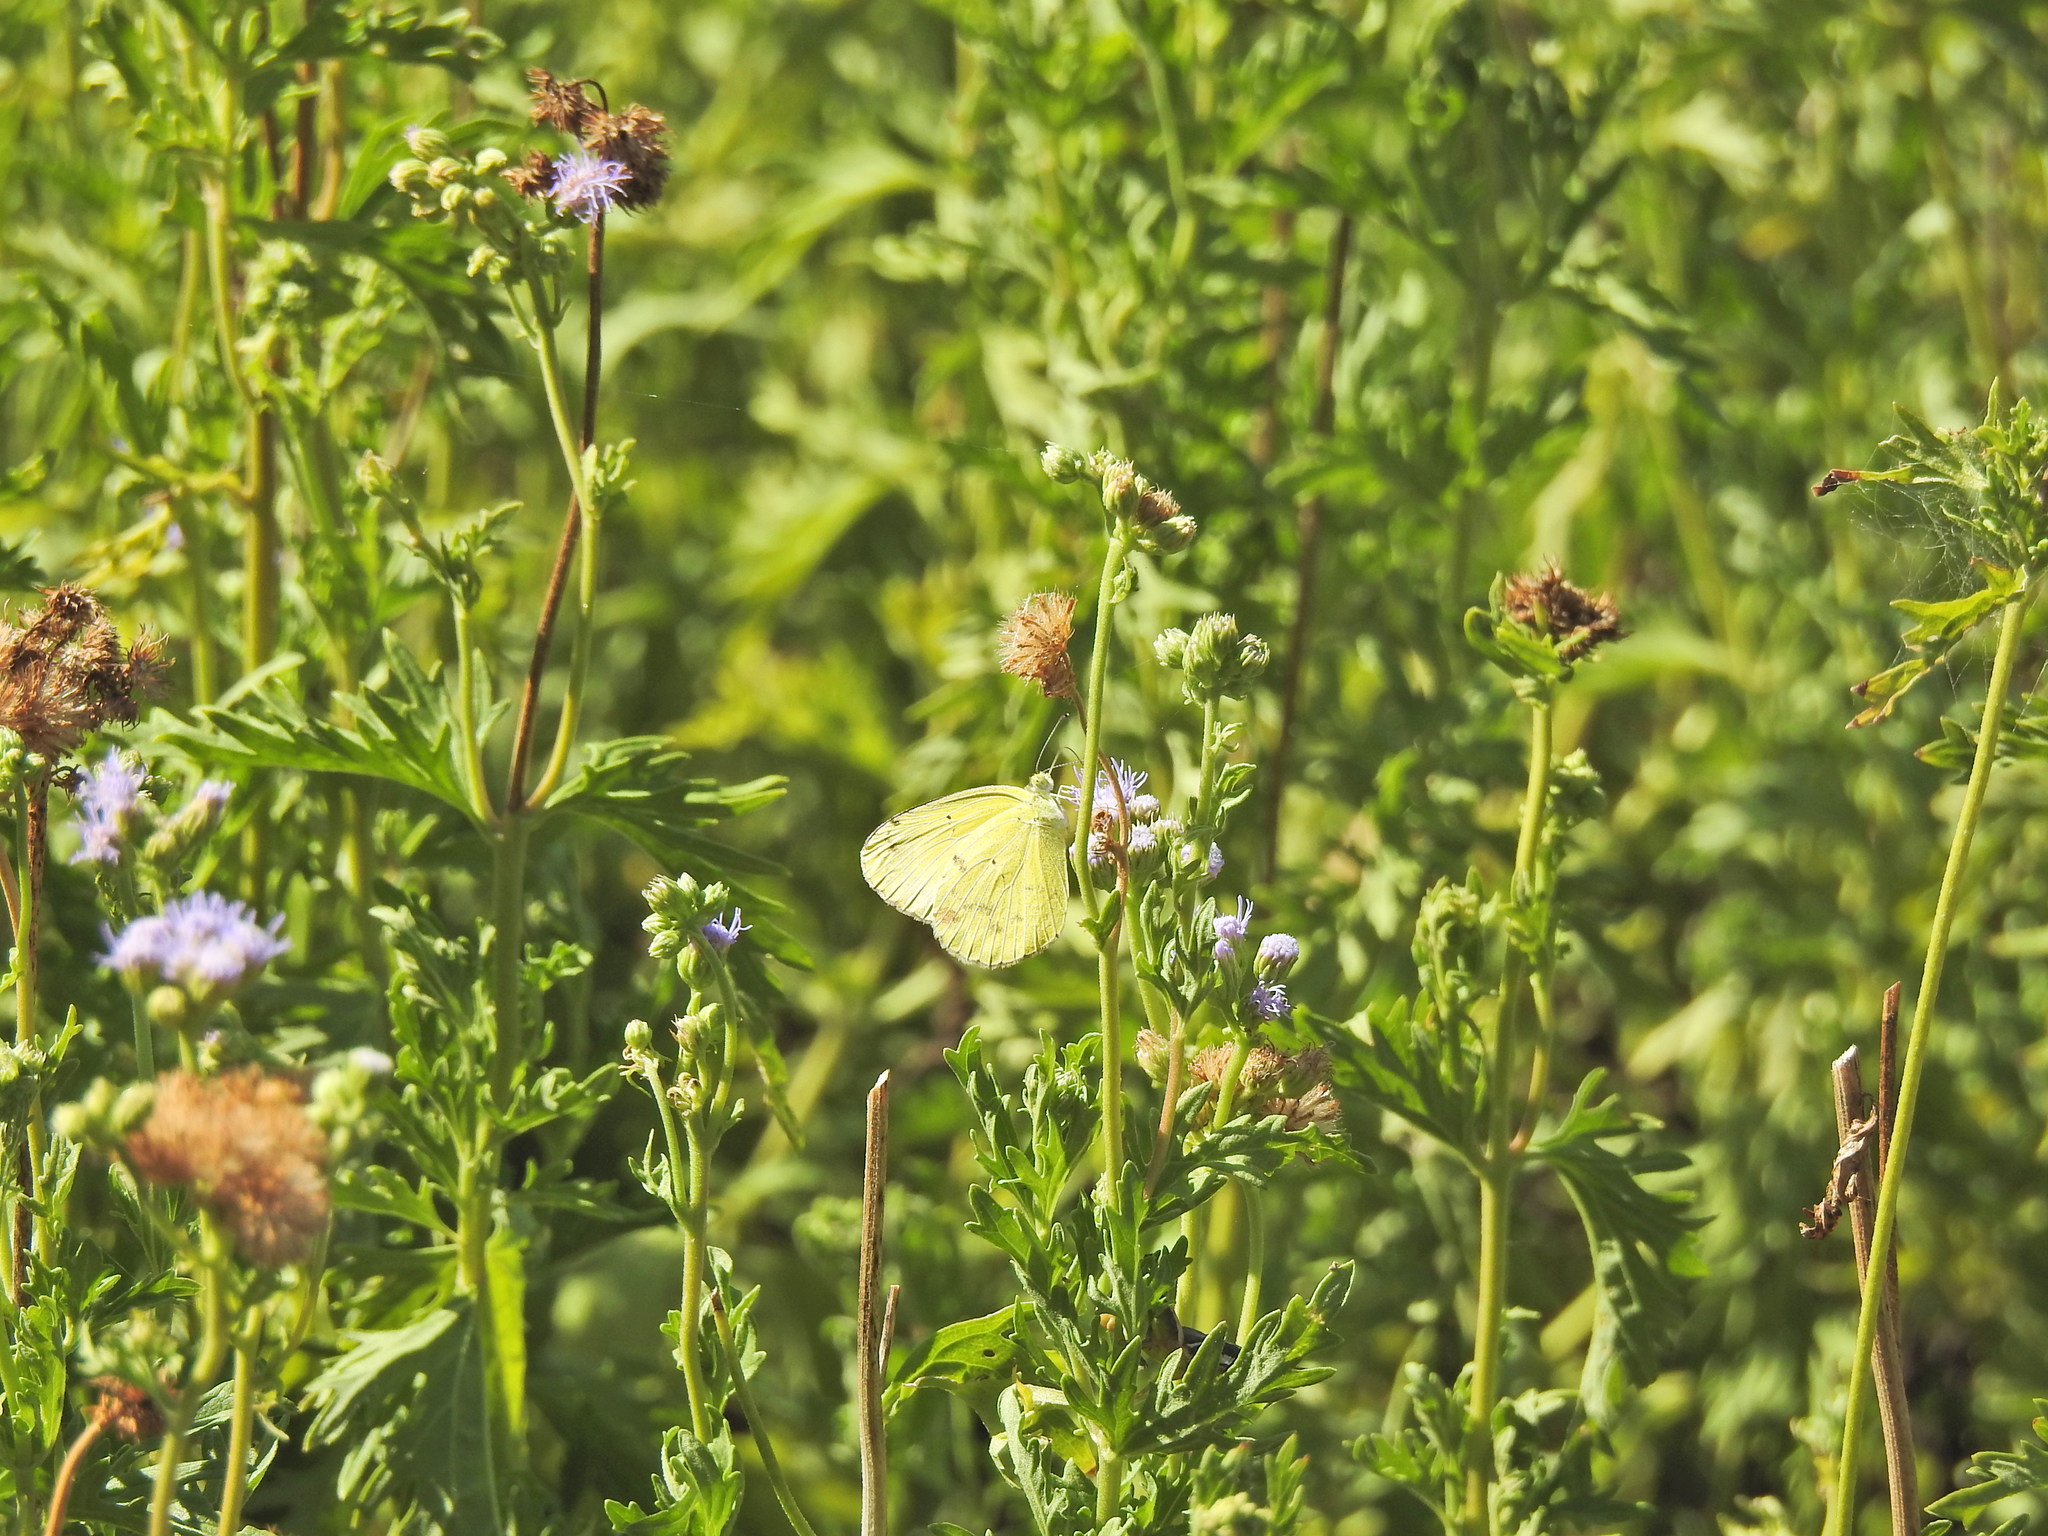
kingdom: Animalia
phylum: Arthropoda
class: Insecta
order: Lepidoptera
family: Pieridae
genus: Pyrisitia
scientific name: Pyrisitia lisa
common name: Little yellow
